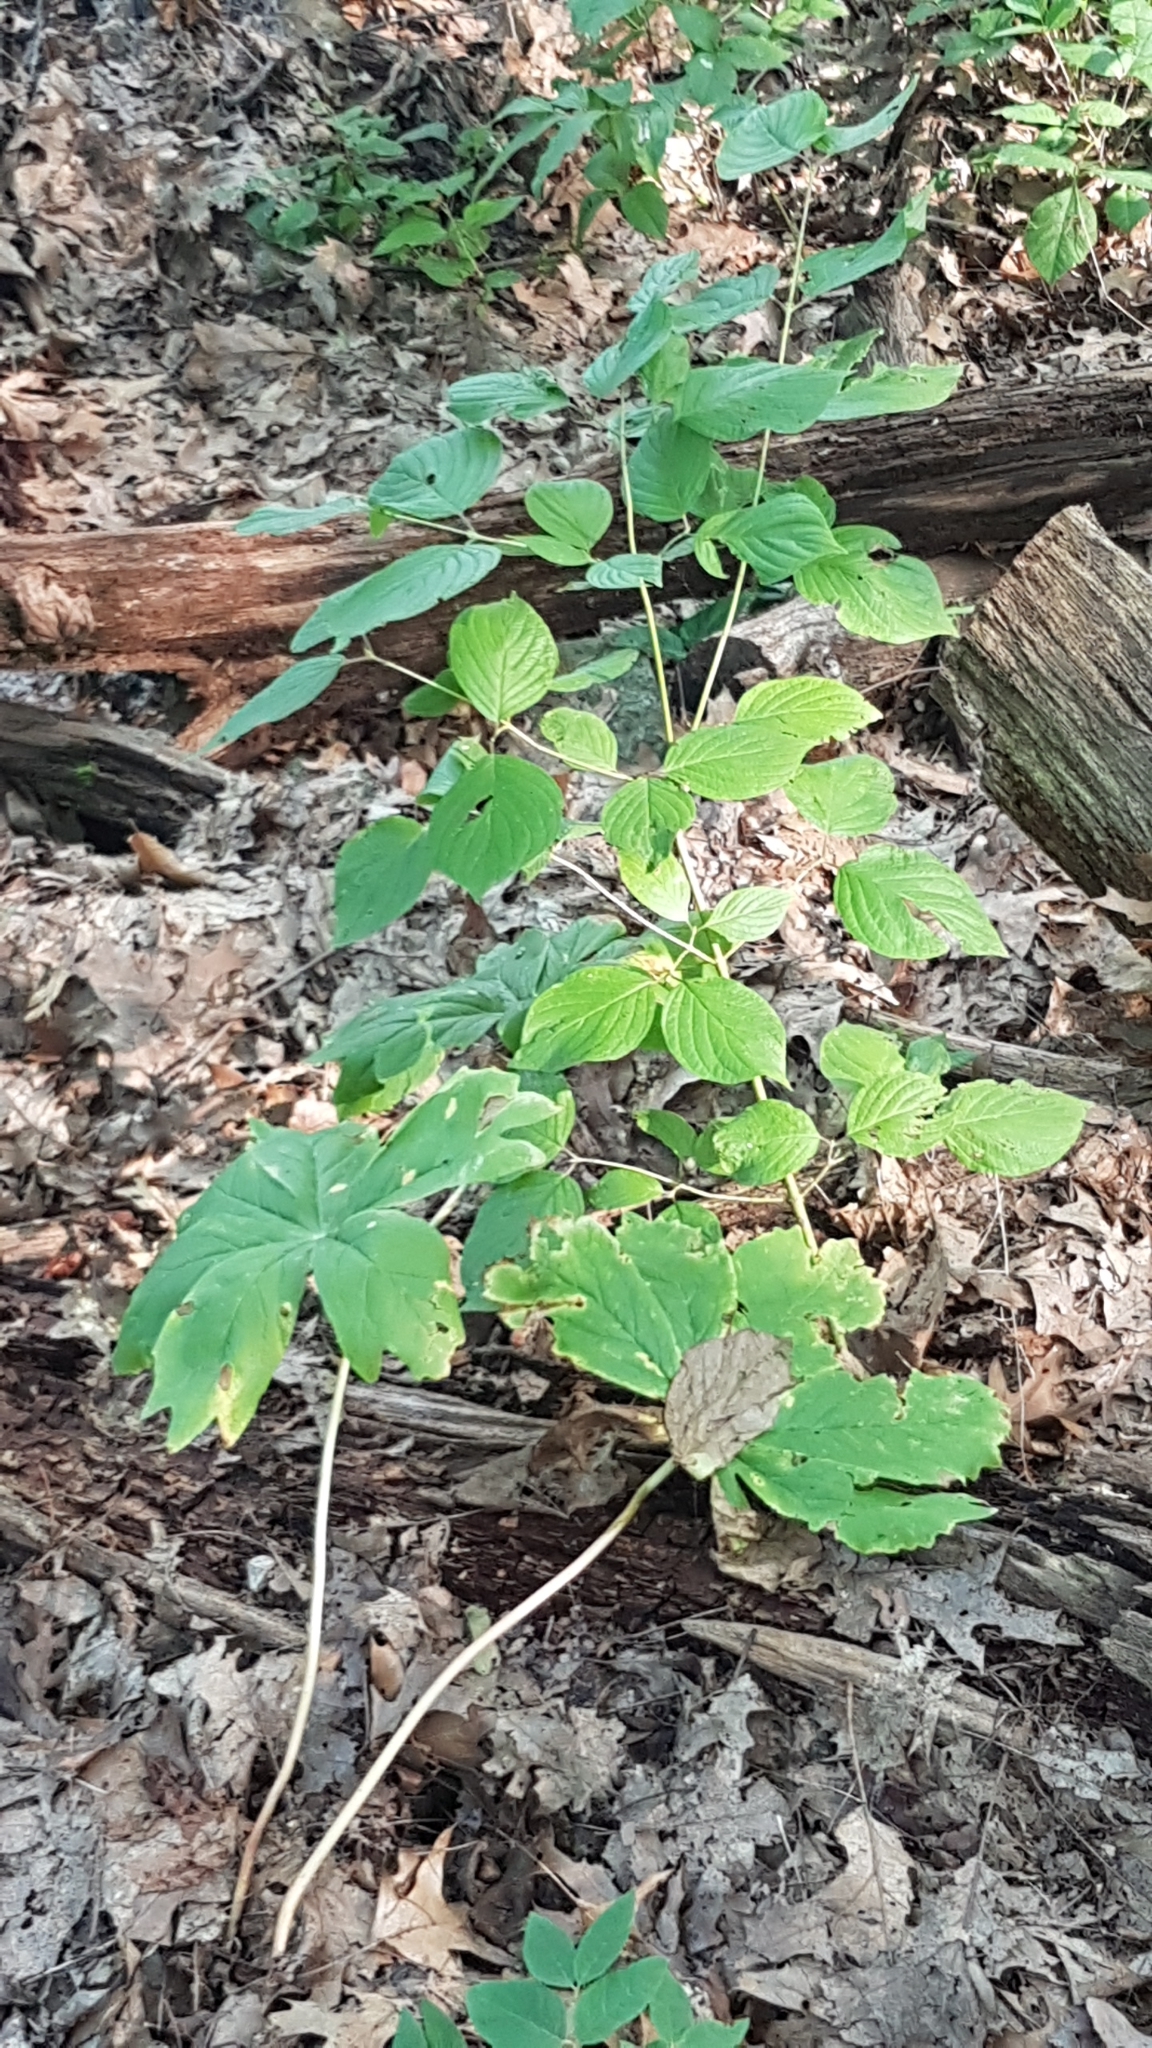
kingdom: Plantae
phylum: Tracheophyta
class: Magnoliopsida
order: Ranunculales
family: Berberidaceae
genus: Podophyllum
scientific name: Podophyllum peltatum
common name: Wild mandrake
